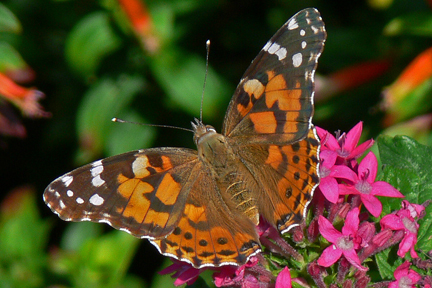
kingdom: Animalia
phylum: Arthropoda
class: Insecta
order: Lepidoptera
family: Nymphalidae
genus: Vanessa
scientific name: Vanessa cardui
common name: Painted lady
